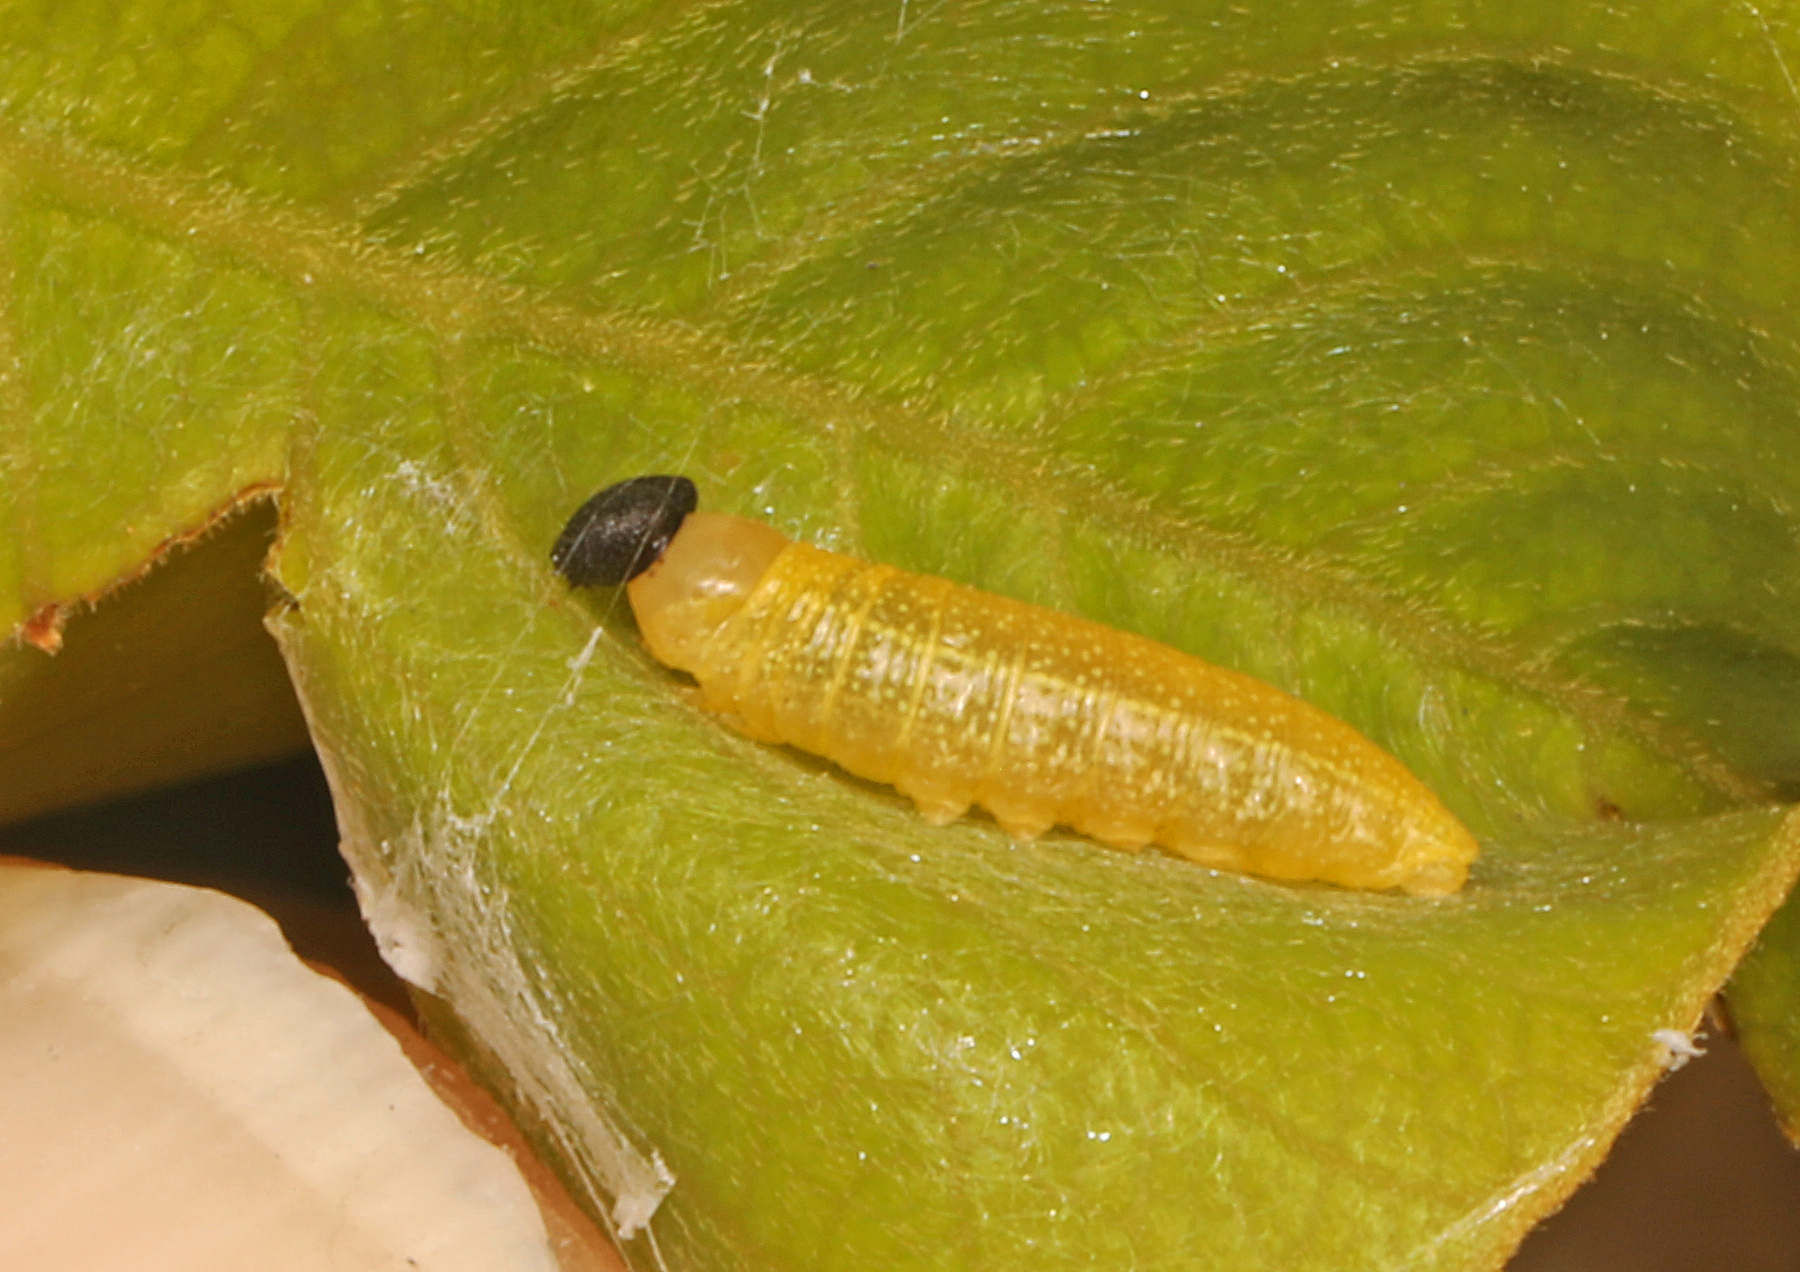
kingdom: Animalia
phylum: Arthropoda
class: Insecta
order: Lepidoptera
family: Hesperiidae
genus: Polygonus
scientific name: Polygonus leo
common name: Hammoch skipper
